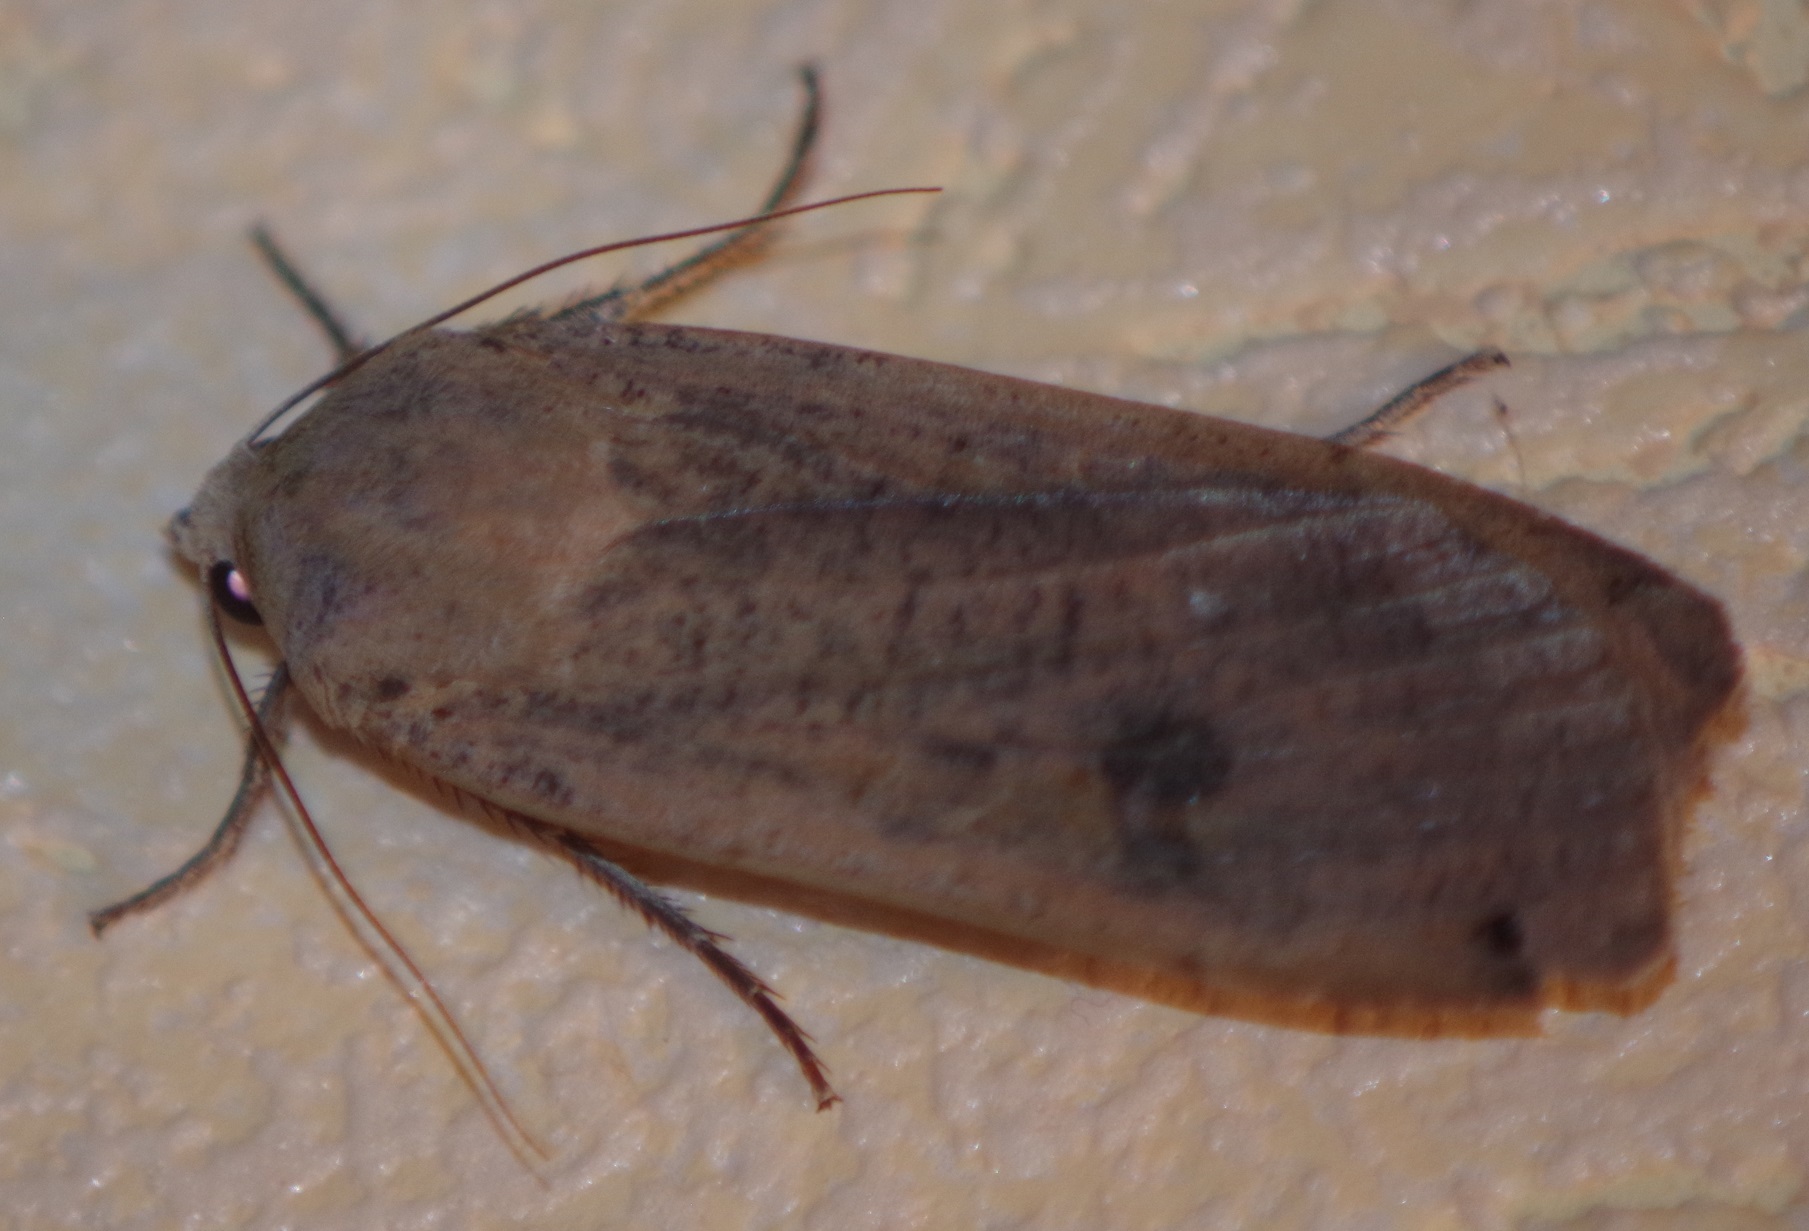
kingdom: Animalia
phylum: Arthropoda
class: Insecta
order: Lepidoptera
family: Noctuidae
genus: Noctua
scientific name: Noctua pronuba
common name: Large yellow underwing
